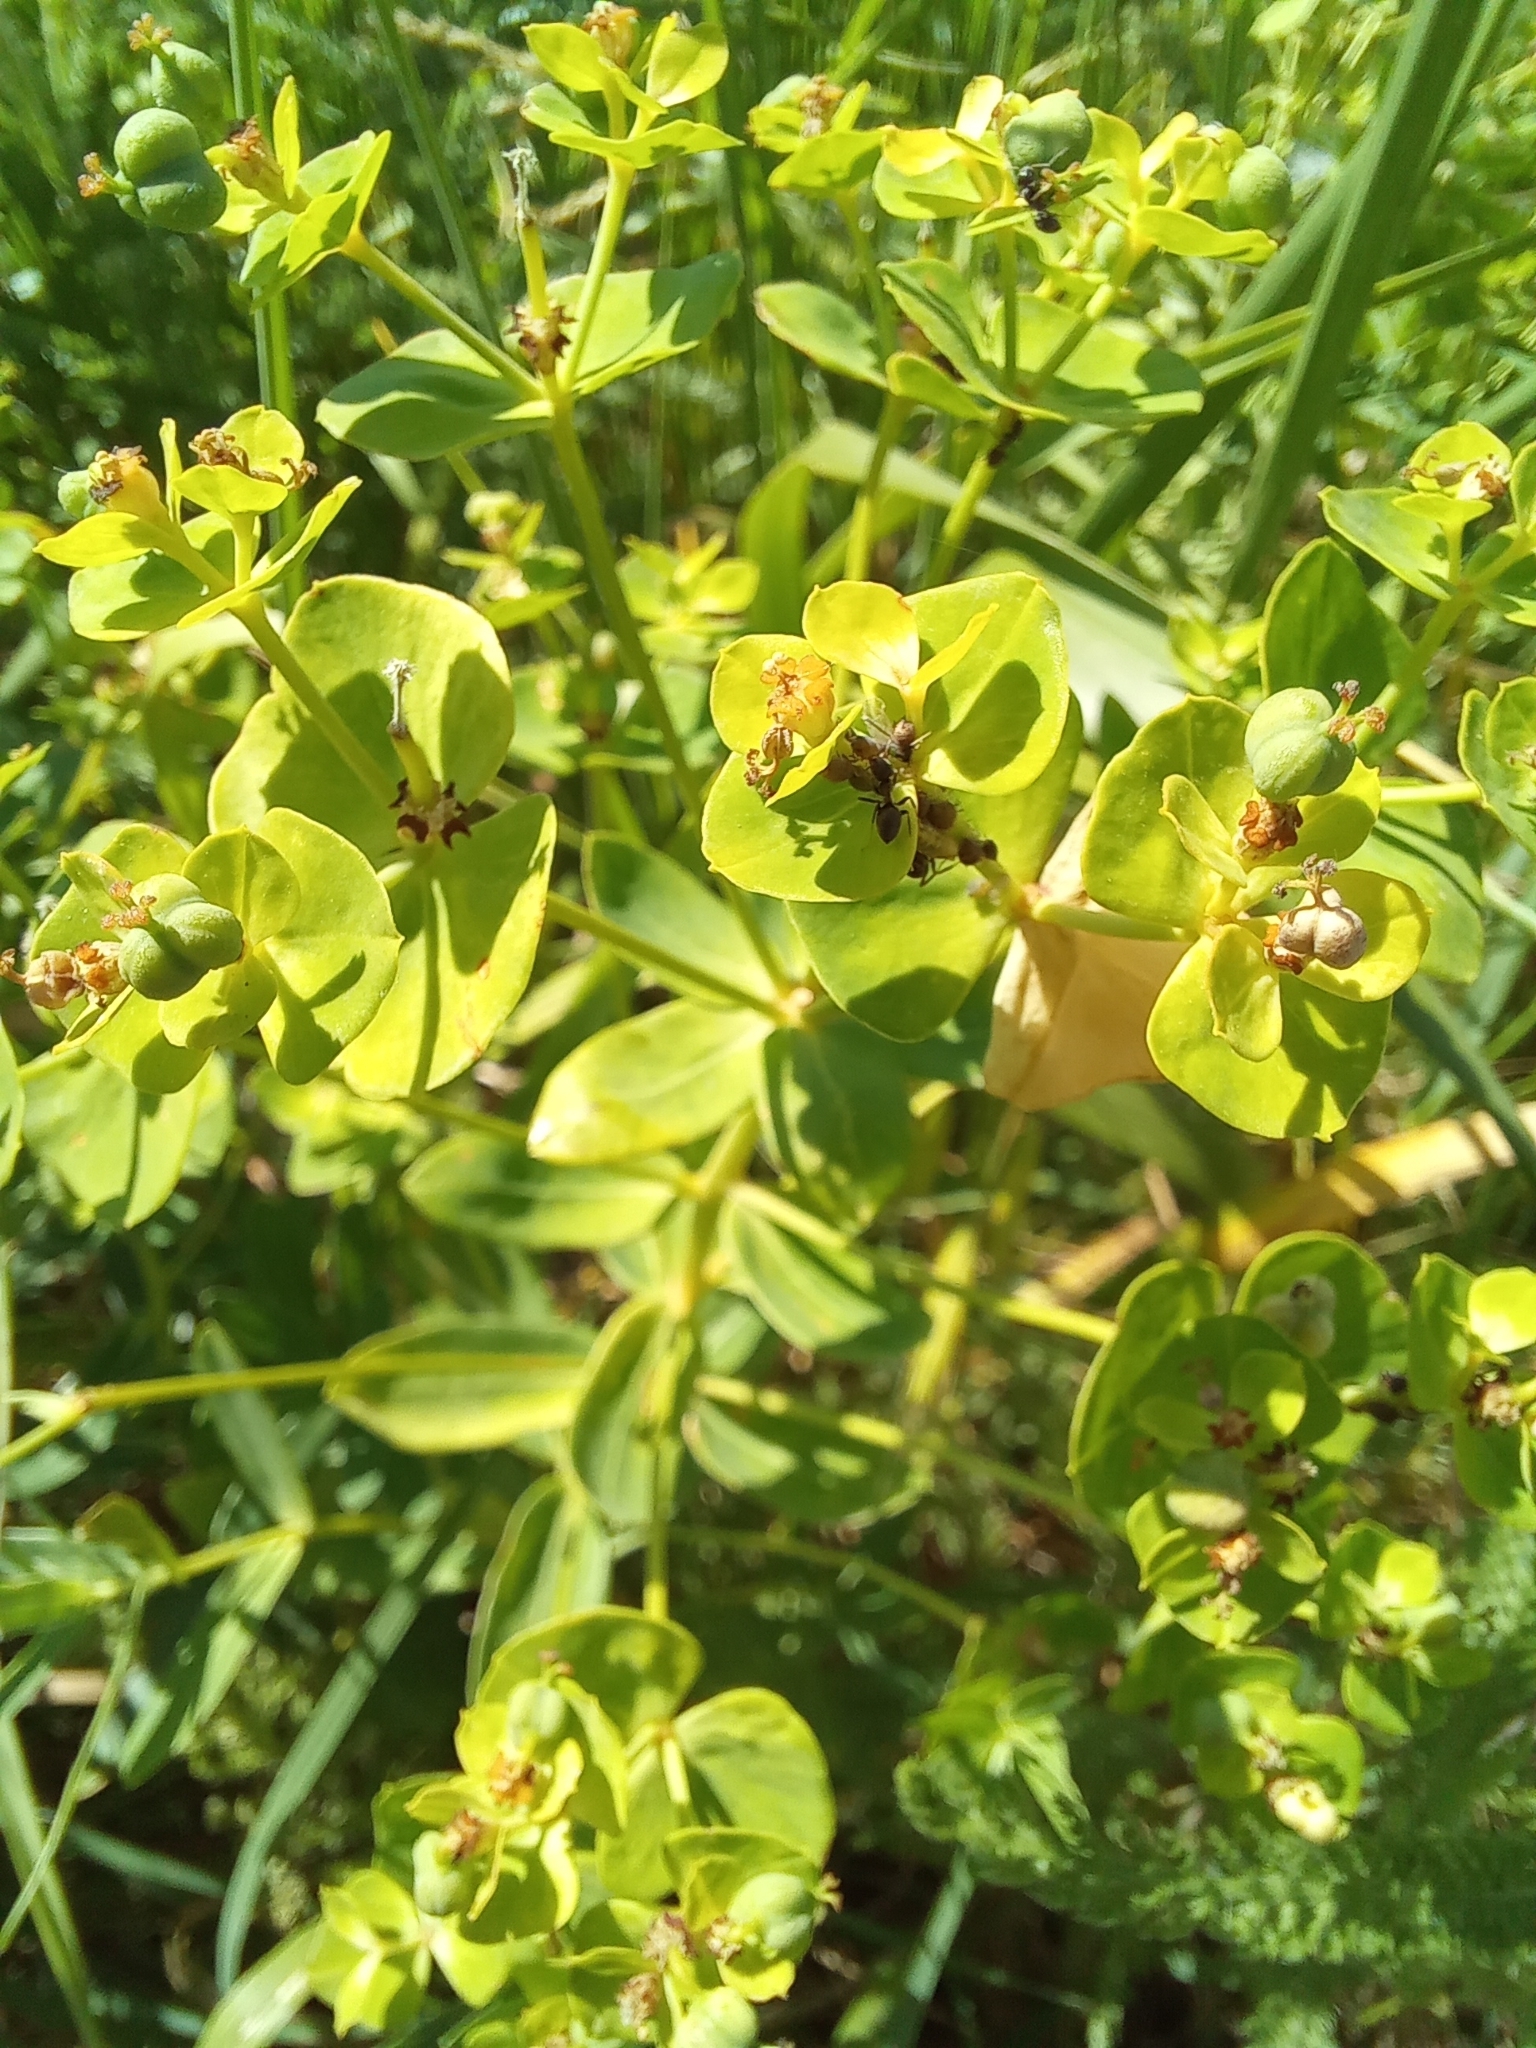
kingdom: Plantae
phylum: Tracheophyta
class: Magnoliopsida
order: Malpighiales
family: Euphorbiaceae
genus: Euphorbia
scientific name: Euphorbia iberica
